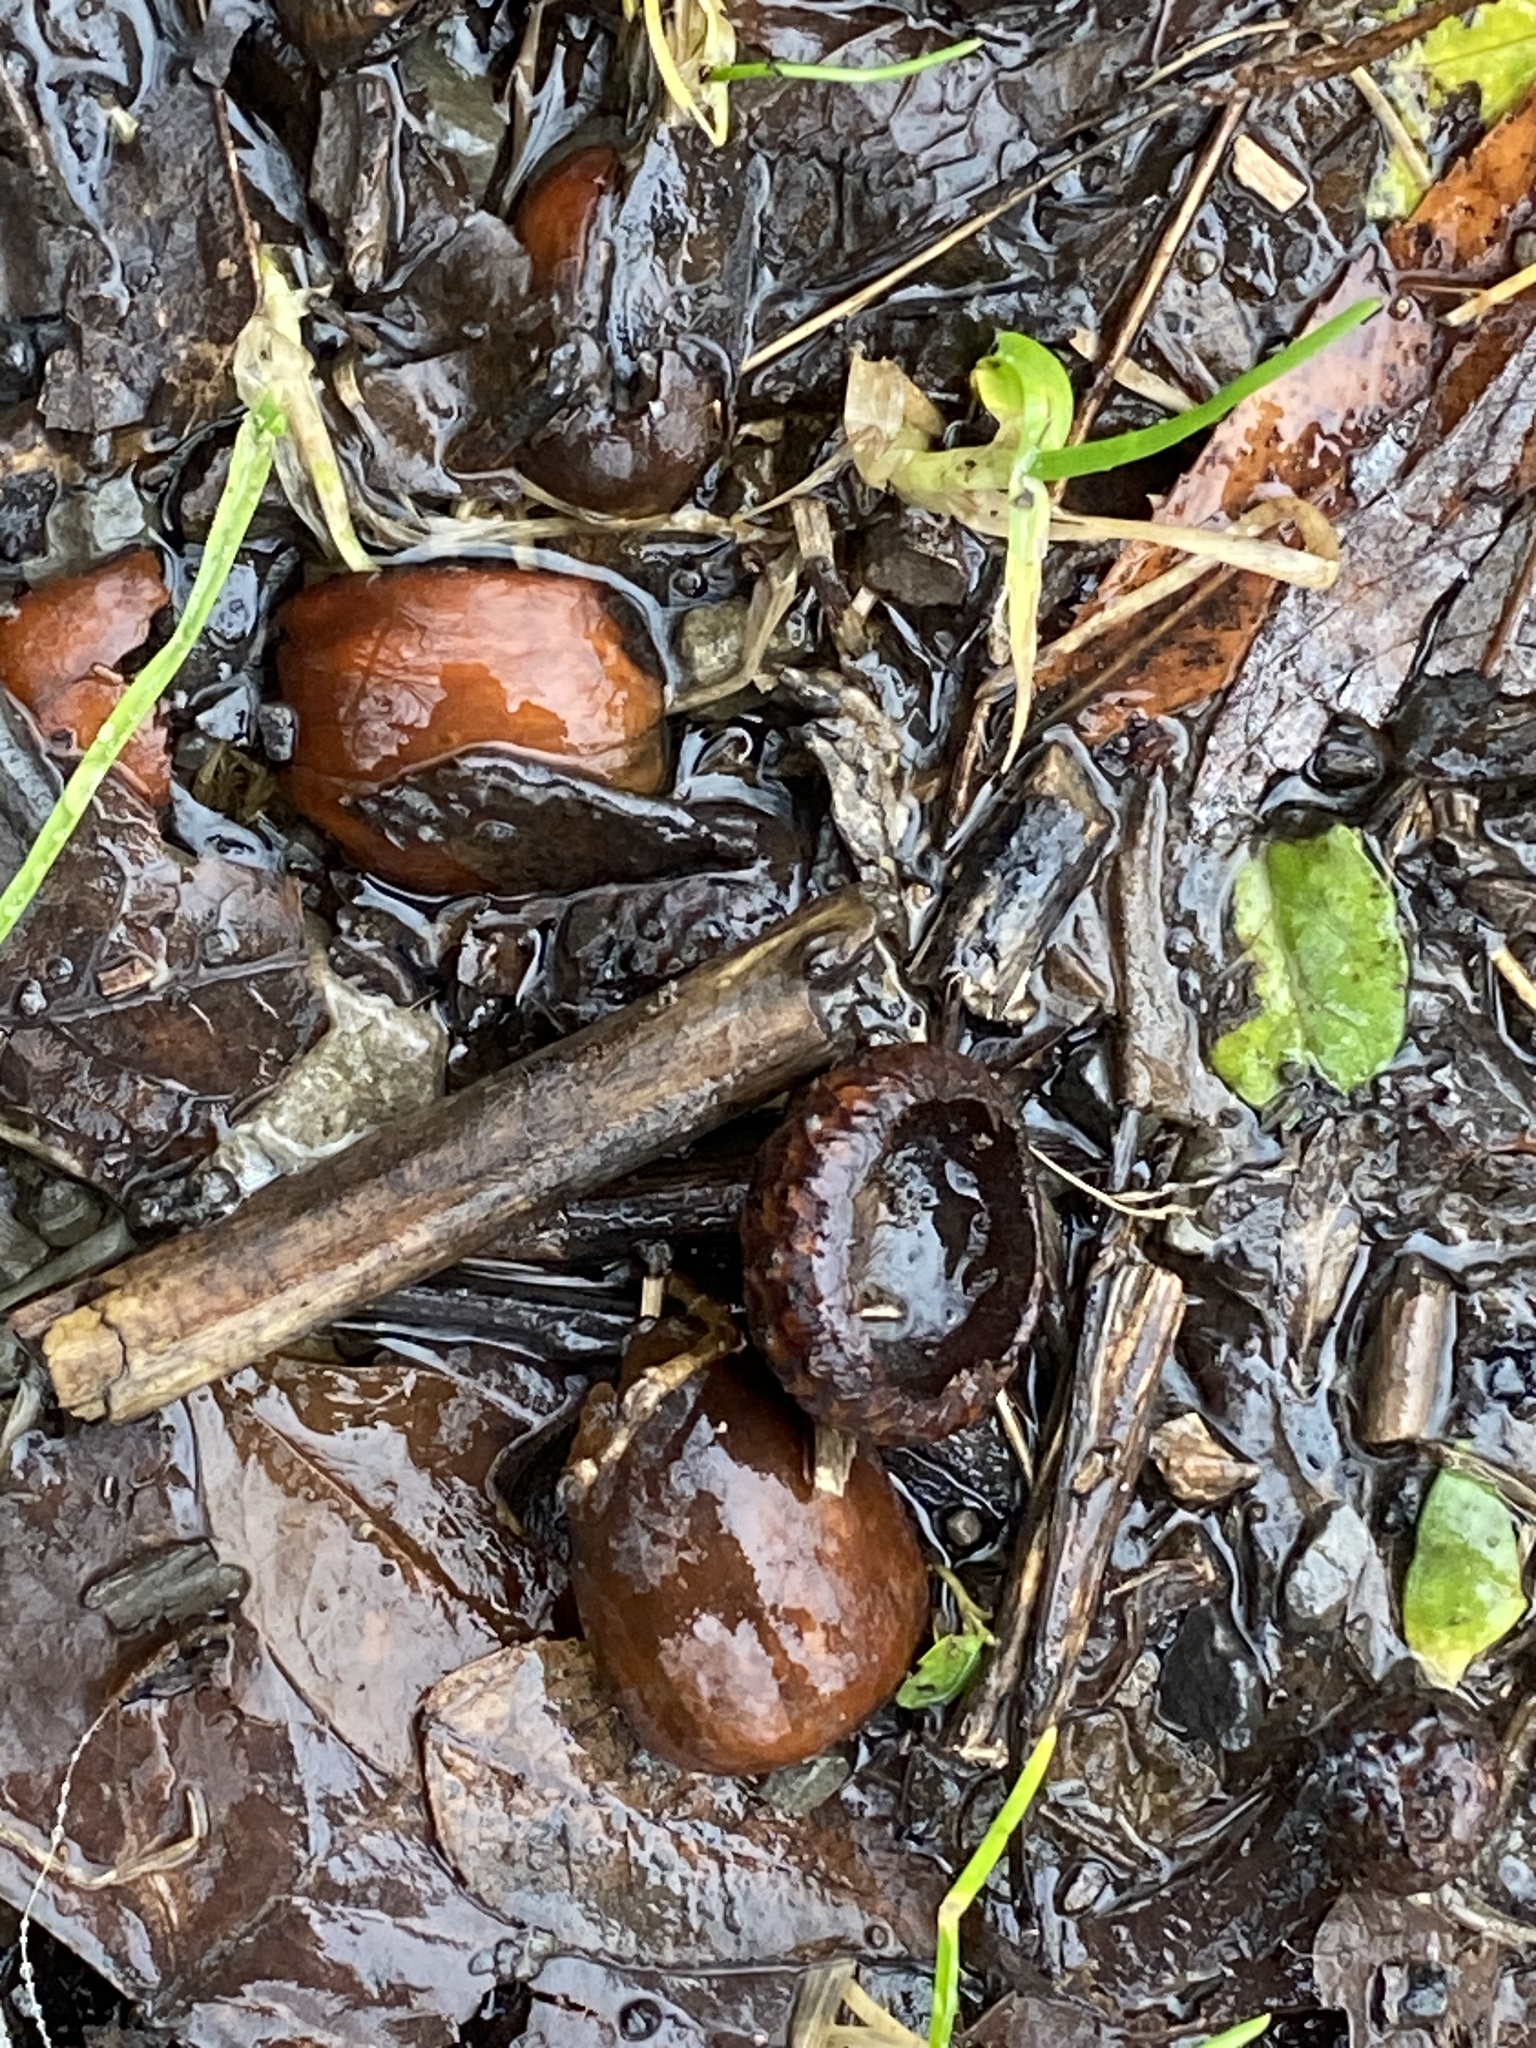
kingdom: Plantae
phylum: Tracheophyta
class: Magnoliopsida
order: Fagales
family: Fagaceae
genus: Quercus
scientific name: Quercus rubra
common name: Red oak
